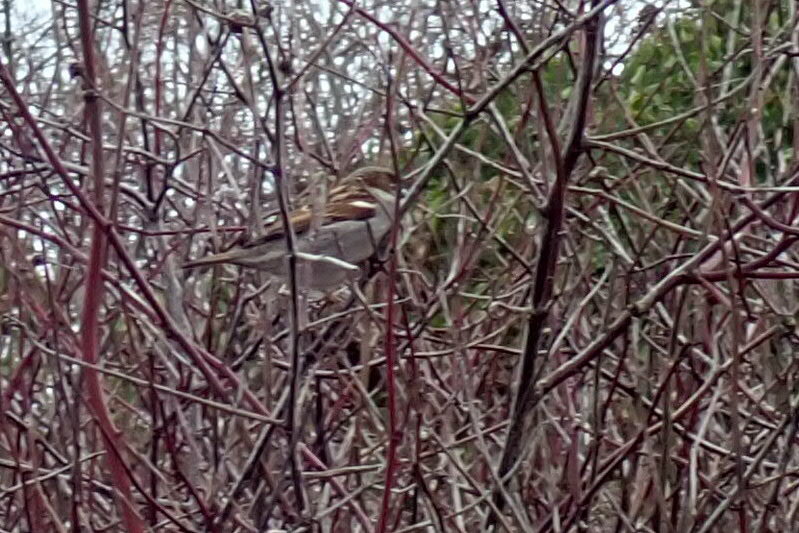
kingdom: Animalia
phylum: Chordata
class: Aves
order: Passeriformes
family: Passeridae
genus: Passer
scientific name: Passer domesticus
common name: House sparrow
